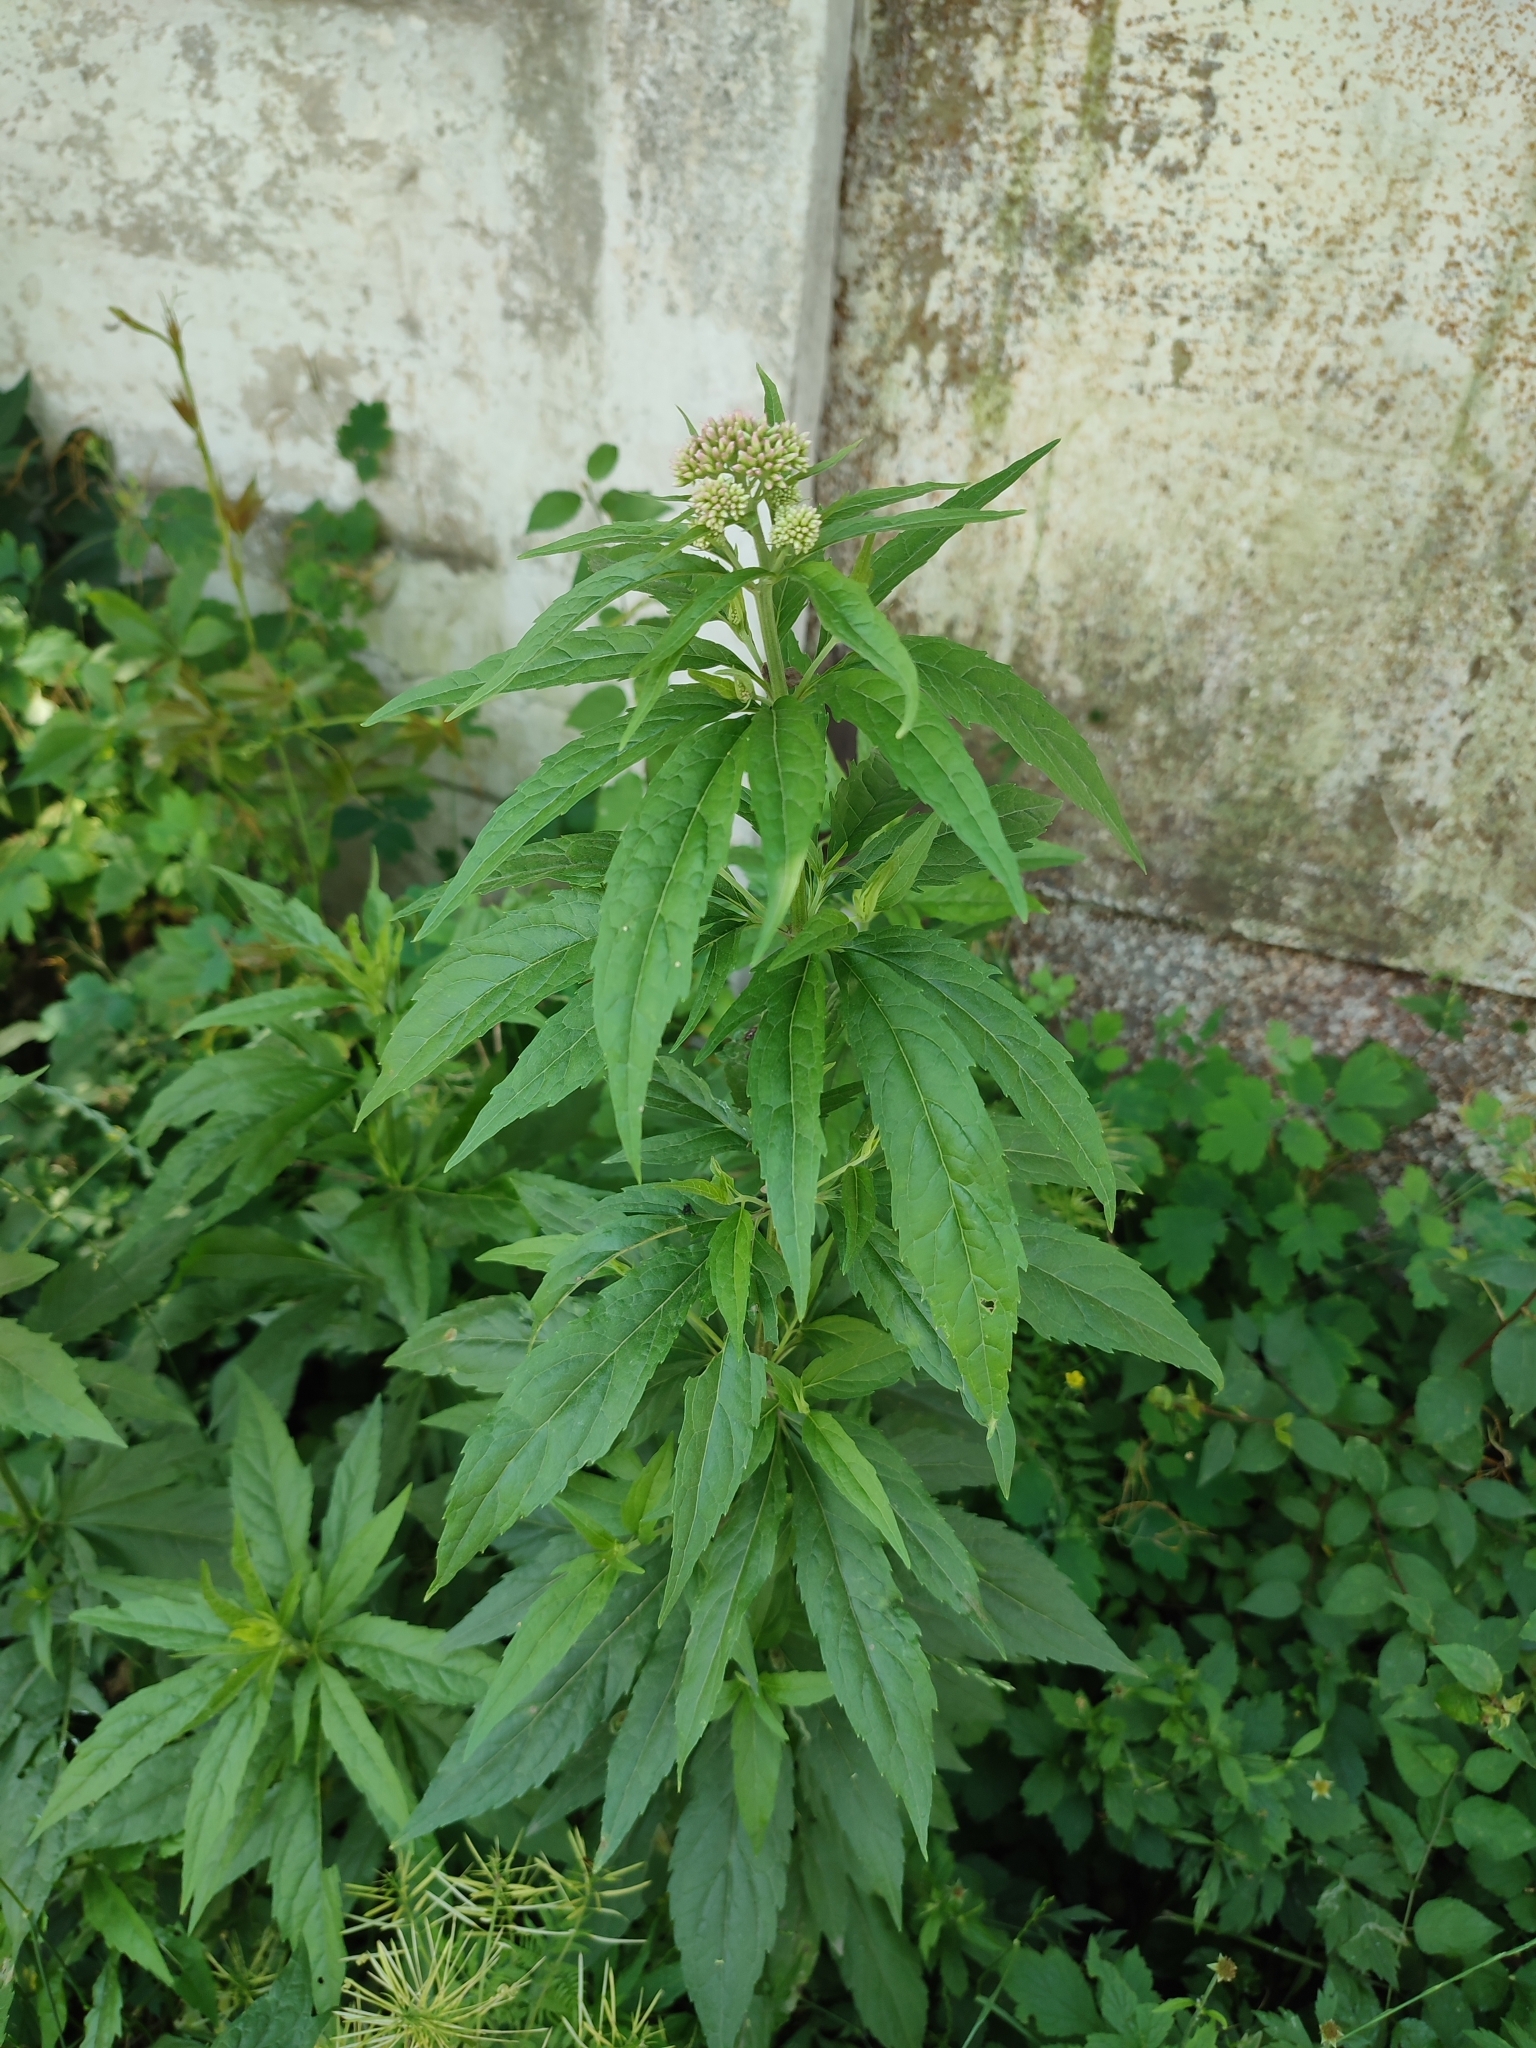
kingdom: Plantae
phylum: Tracheophyta
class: Magnoliopsida
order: Asterales
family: Asteraceae
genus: Eupatorium
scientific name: Eupatorium cannabinum
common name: Hemp-agrimony
